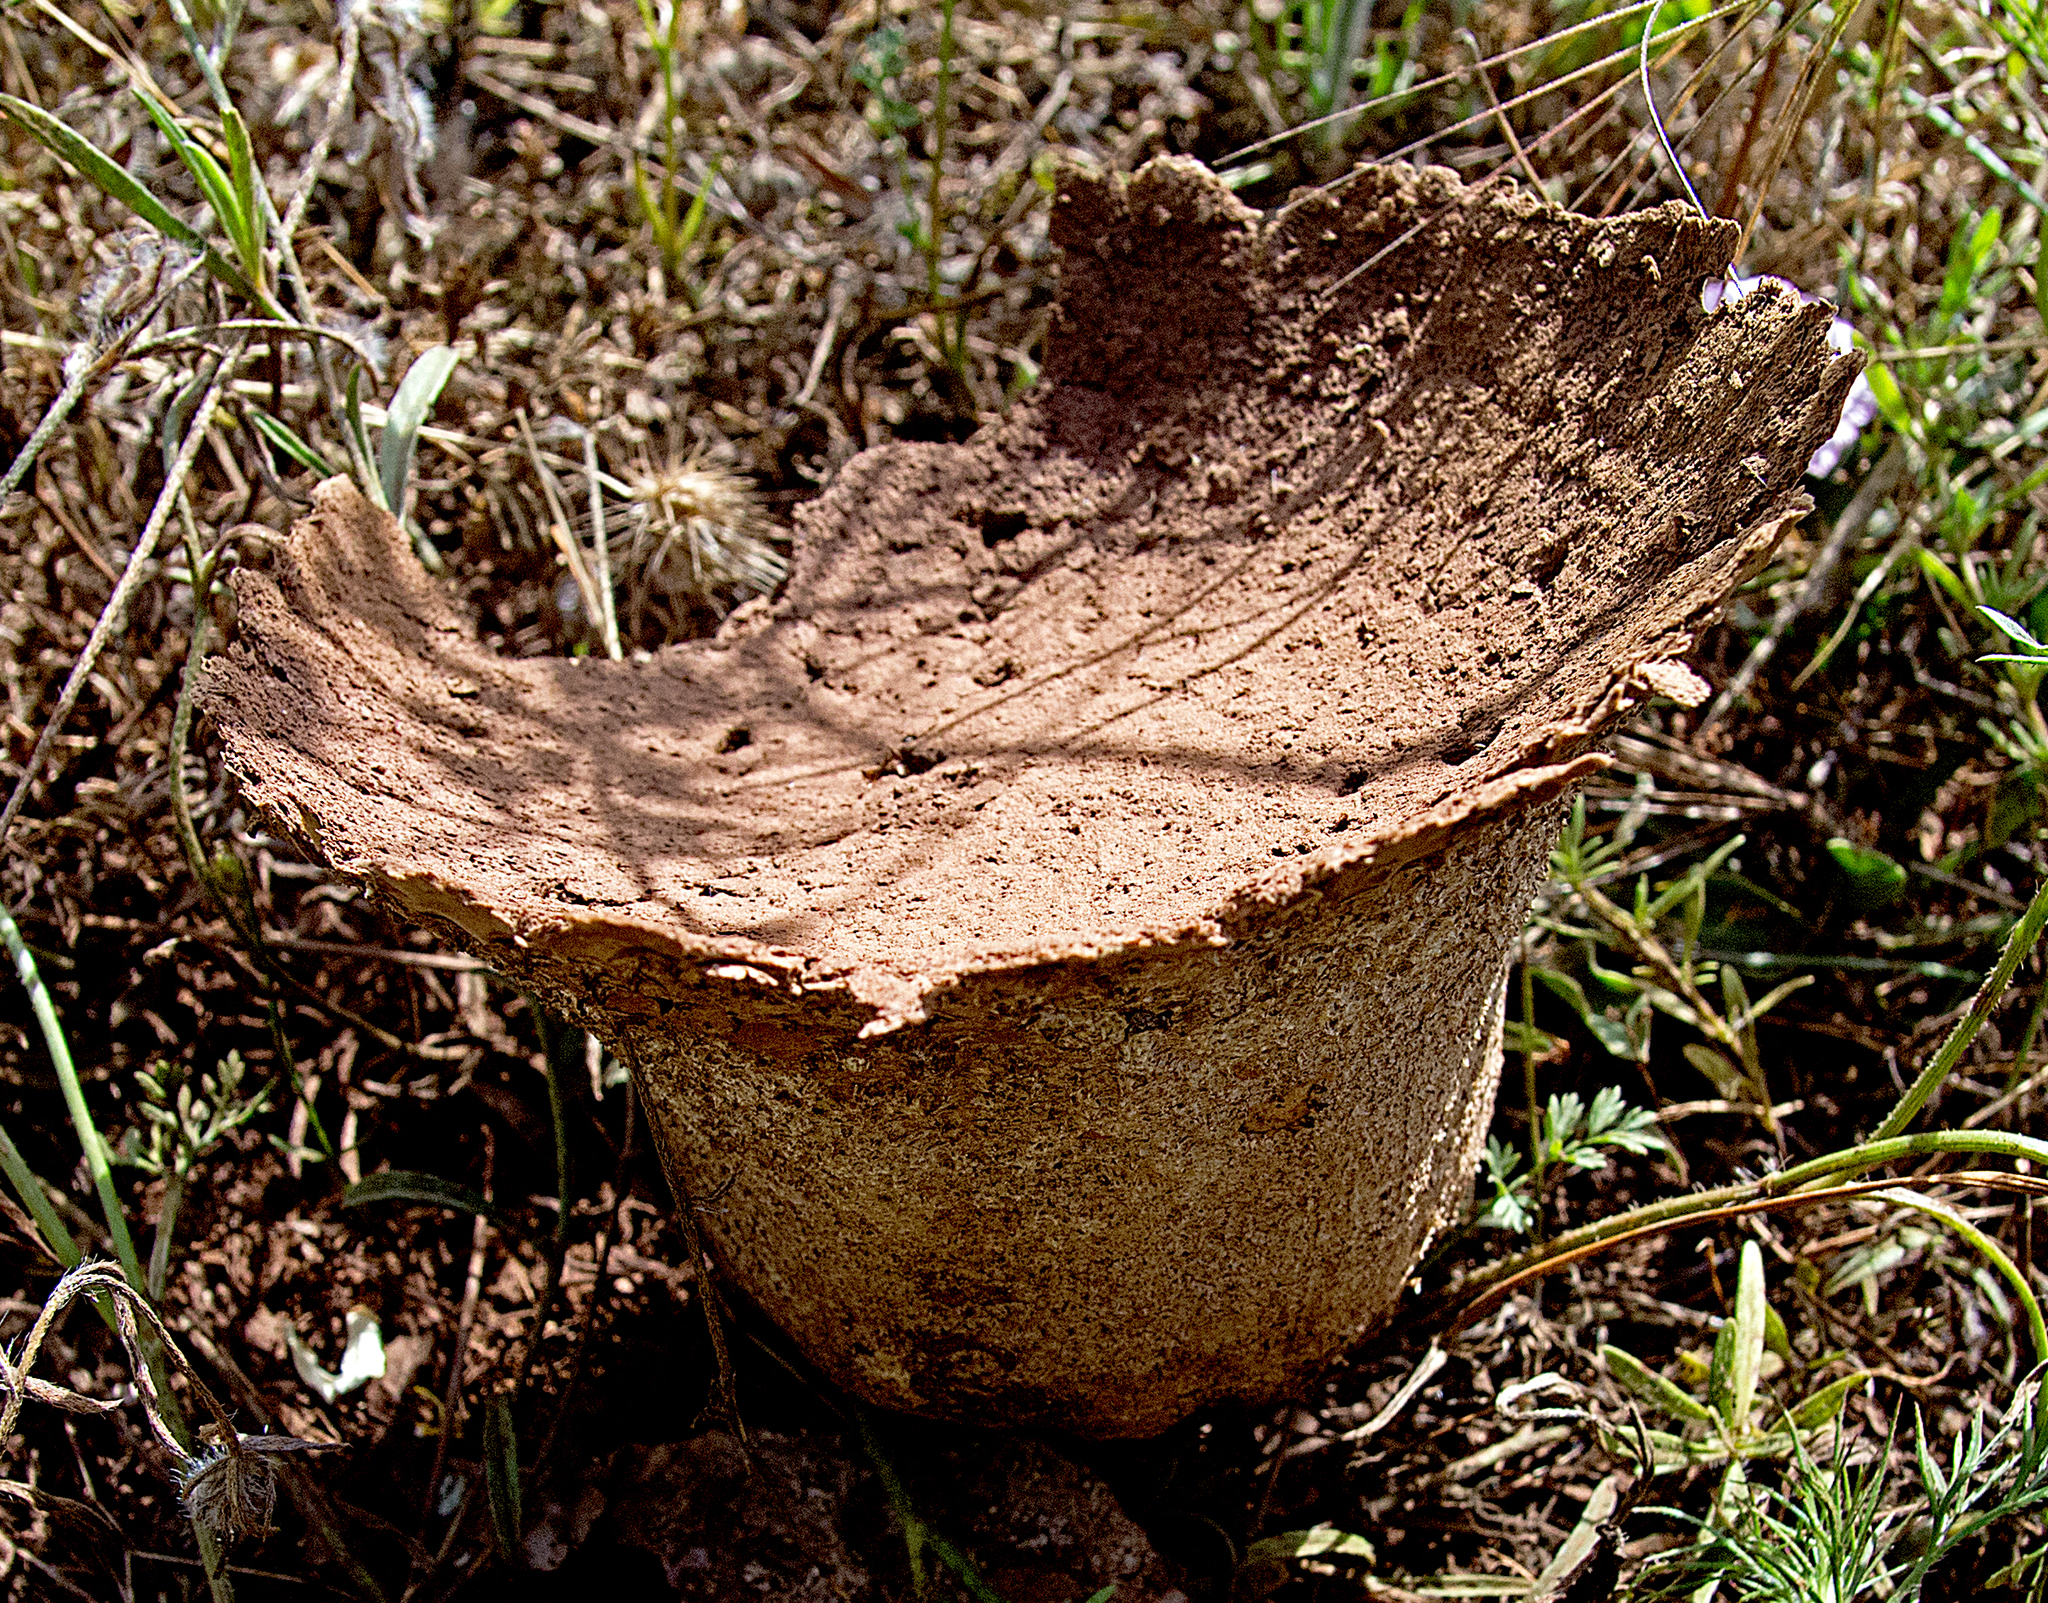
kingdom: Fungi
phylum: Basidiomycota
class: Agaricomycetes
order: Agaricales
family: Lycoperdaceae
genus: Bovistella
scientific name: Bovistella utriformis
